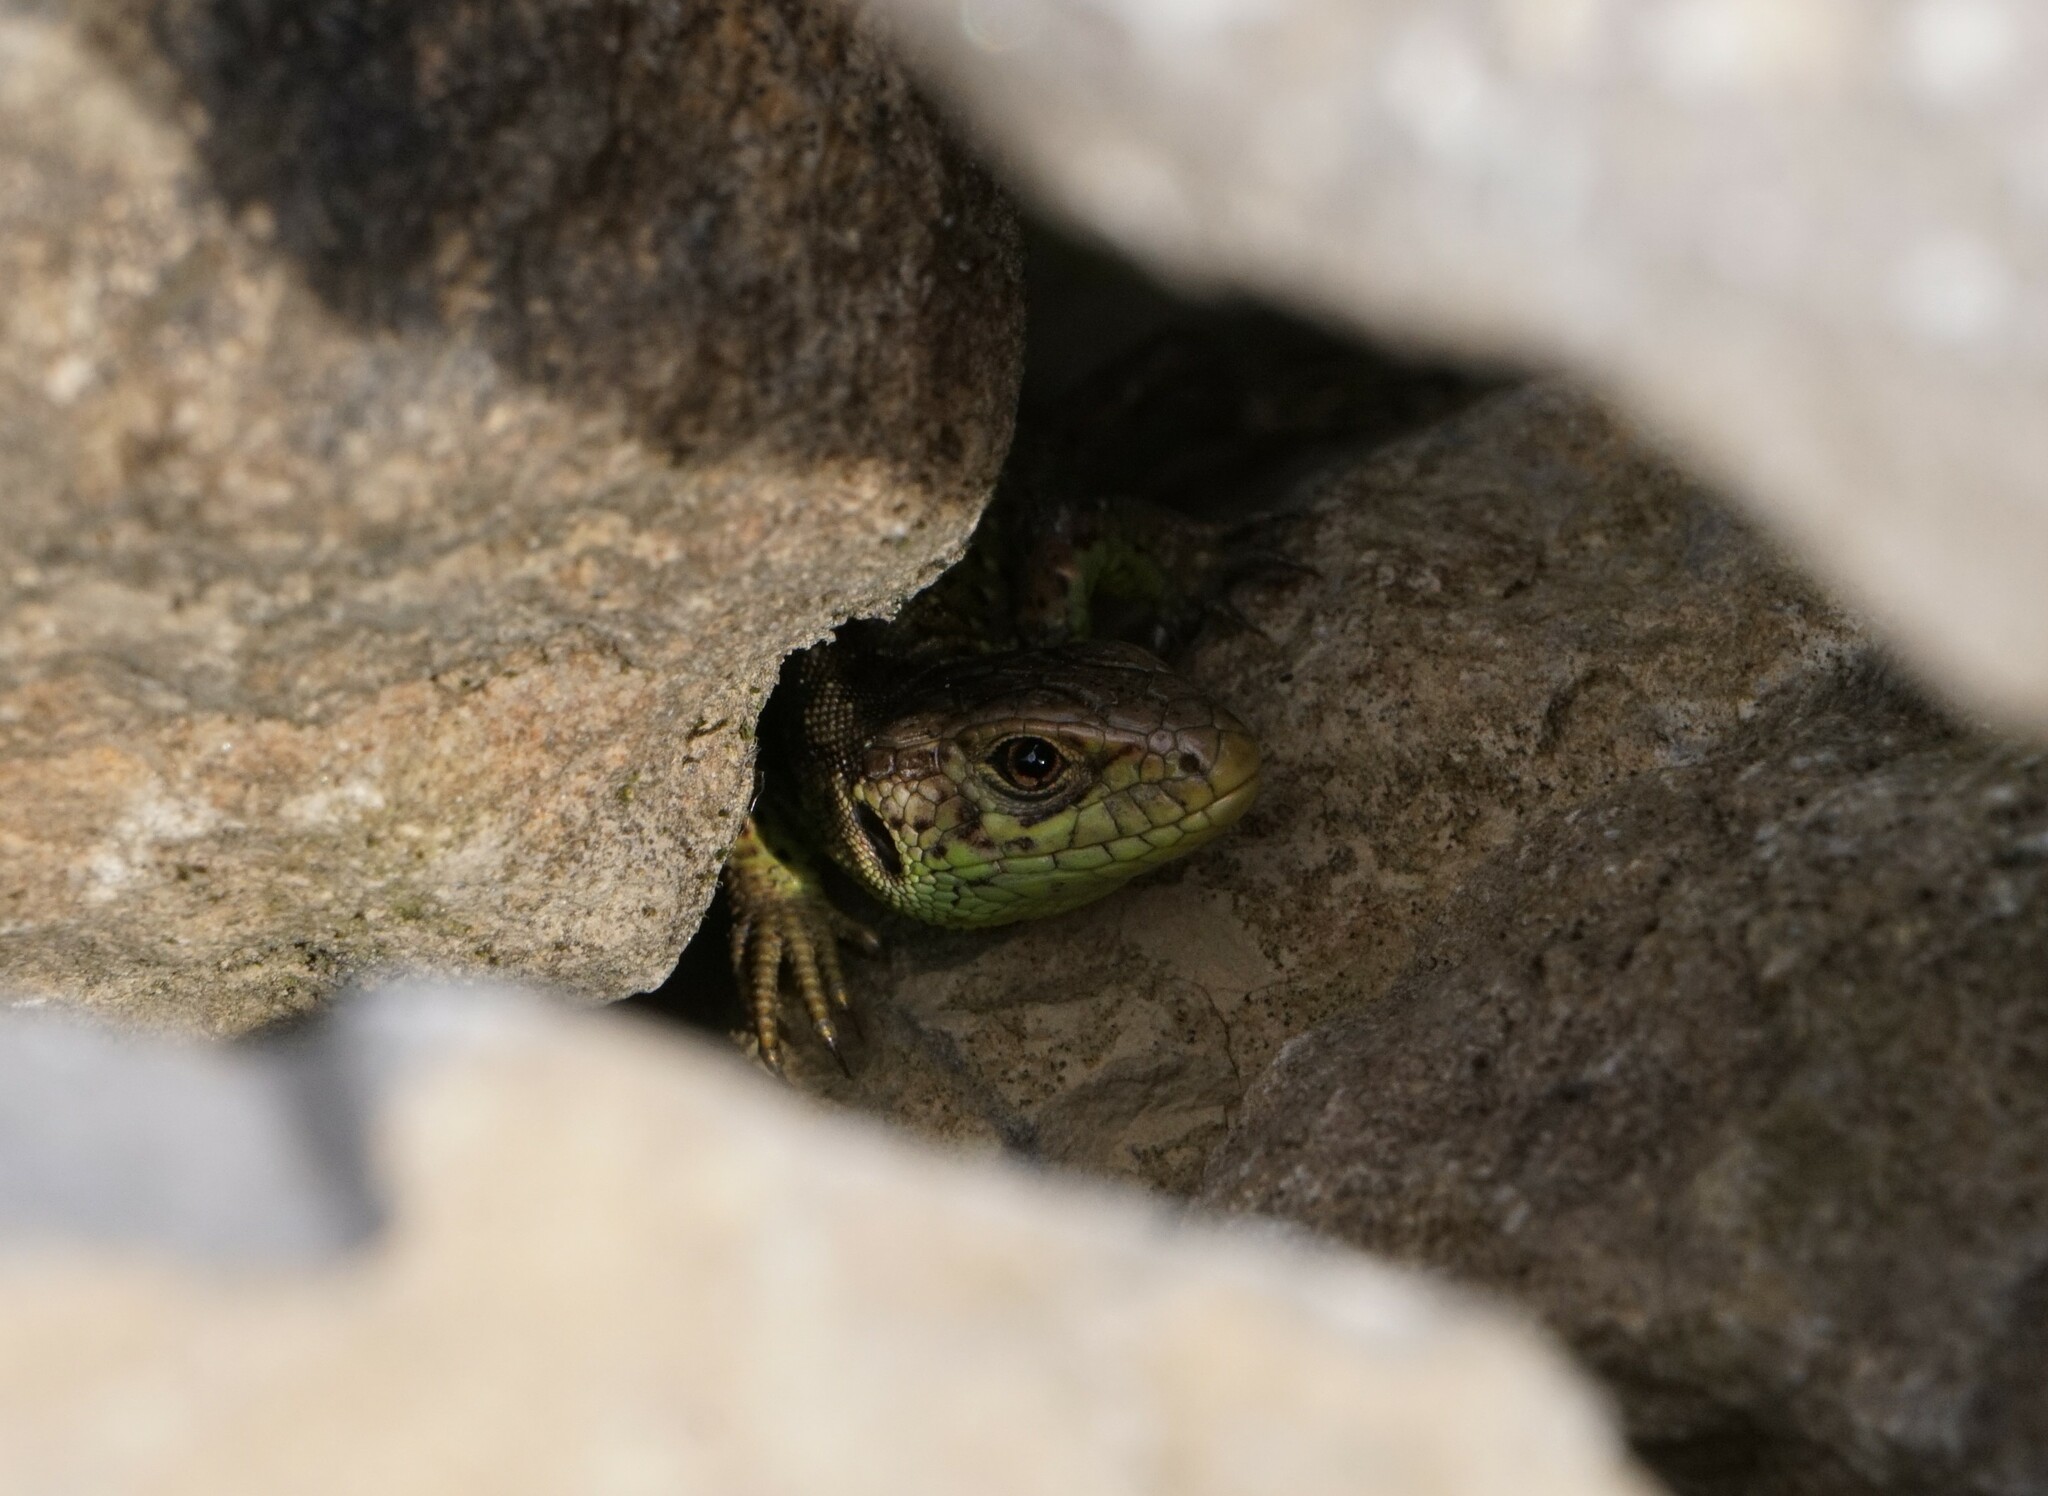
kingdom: Animalia
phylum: Chordata
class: Squamata
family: Lacertidae
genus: Lacerta
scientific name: Lacerta agilis
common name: Sand lizard
